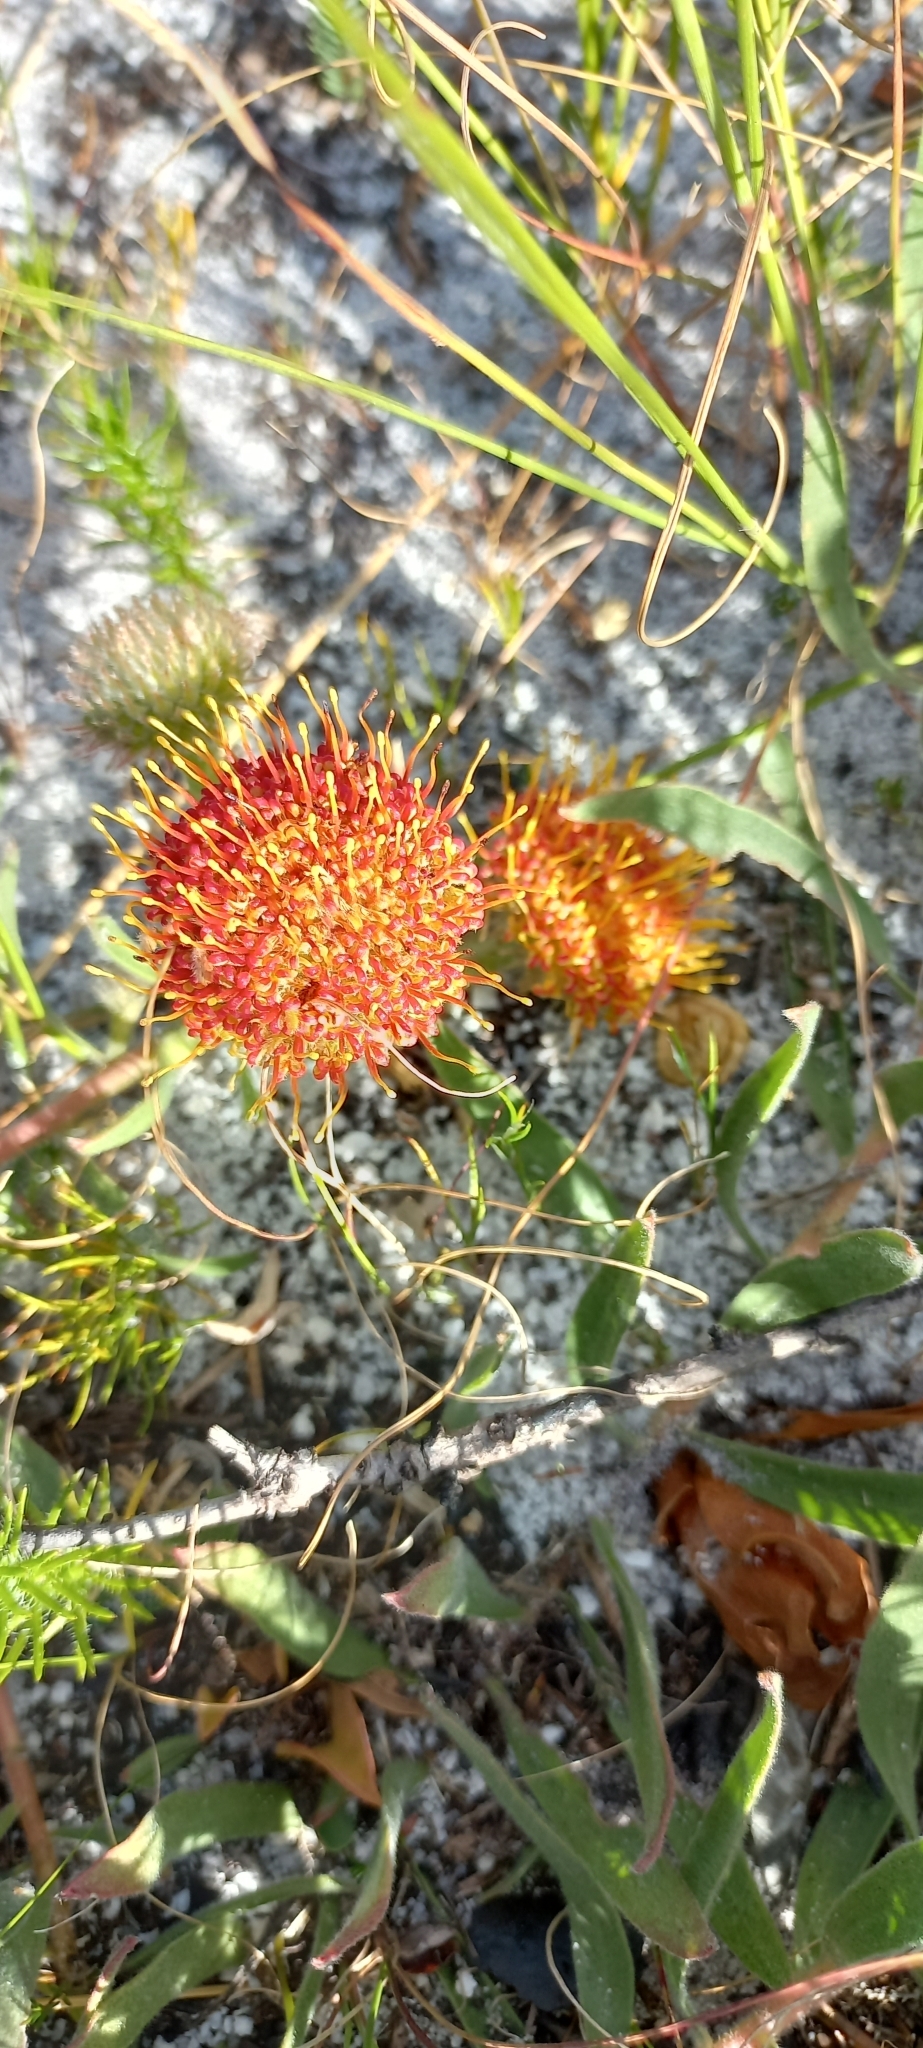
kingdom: Plantae
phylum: Tracheophyta
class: Magnoliopsida
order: Proteales
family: Proteaceae
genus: Leucospermum
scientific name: Leucospermum prostratum
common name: Yellow-trailing pincushion
